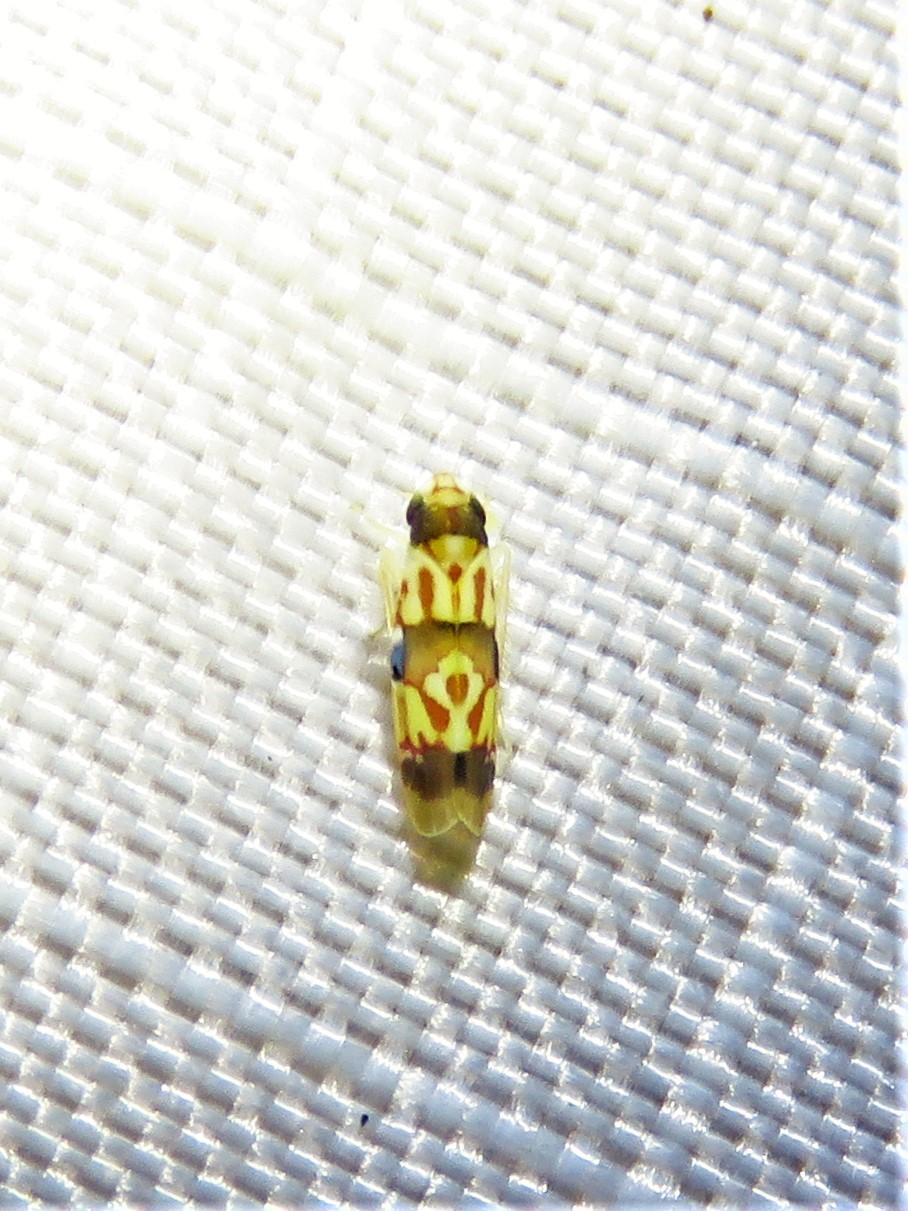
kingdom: Animalia
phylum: Arthropoda
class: Insecta
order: Hemiptera
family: Cicadellidae
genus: Erythroneura
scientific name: Erythroneura integra
